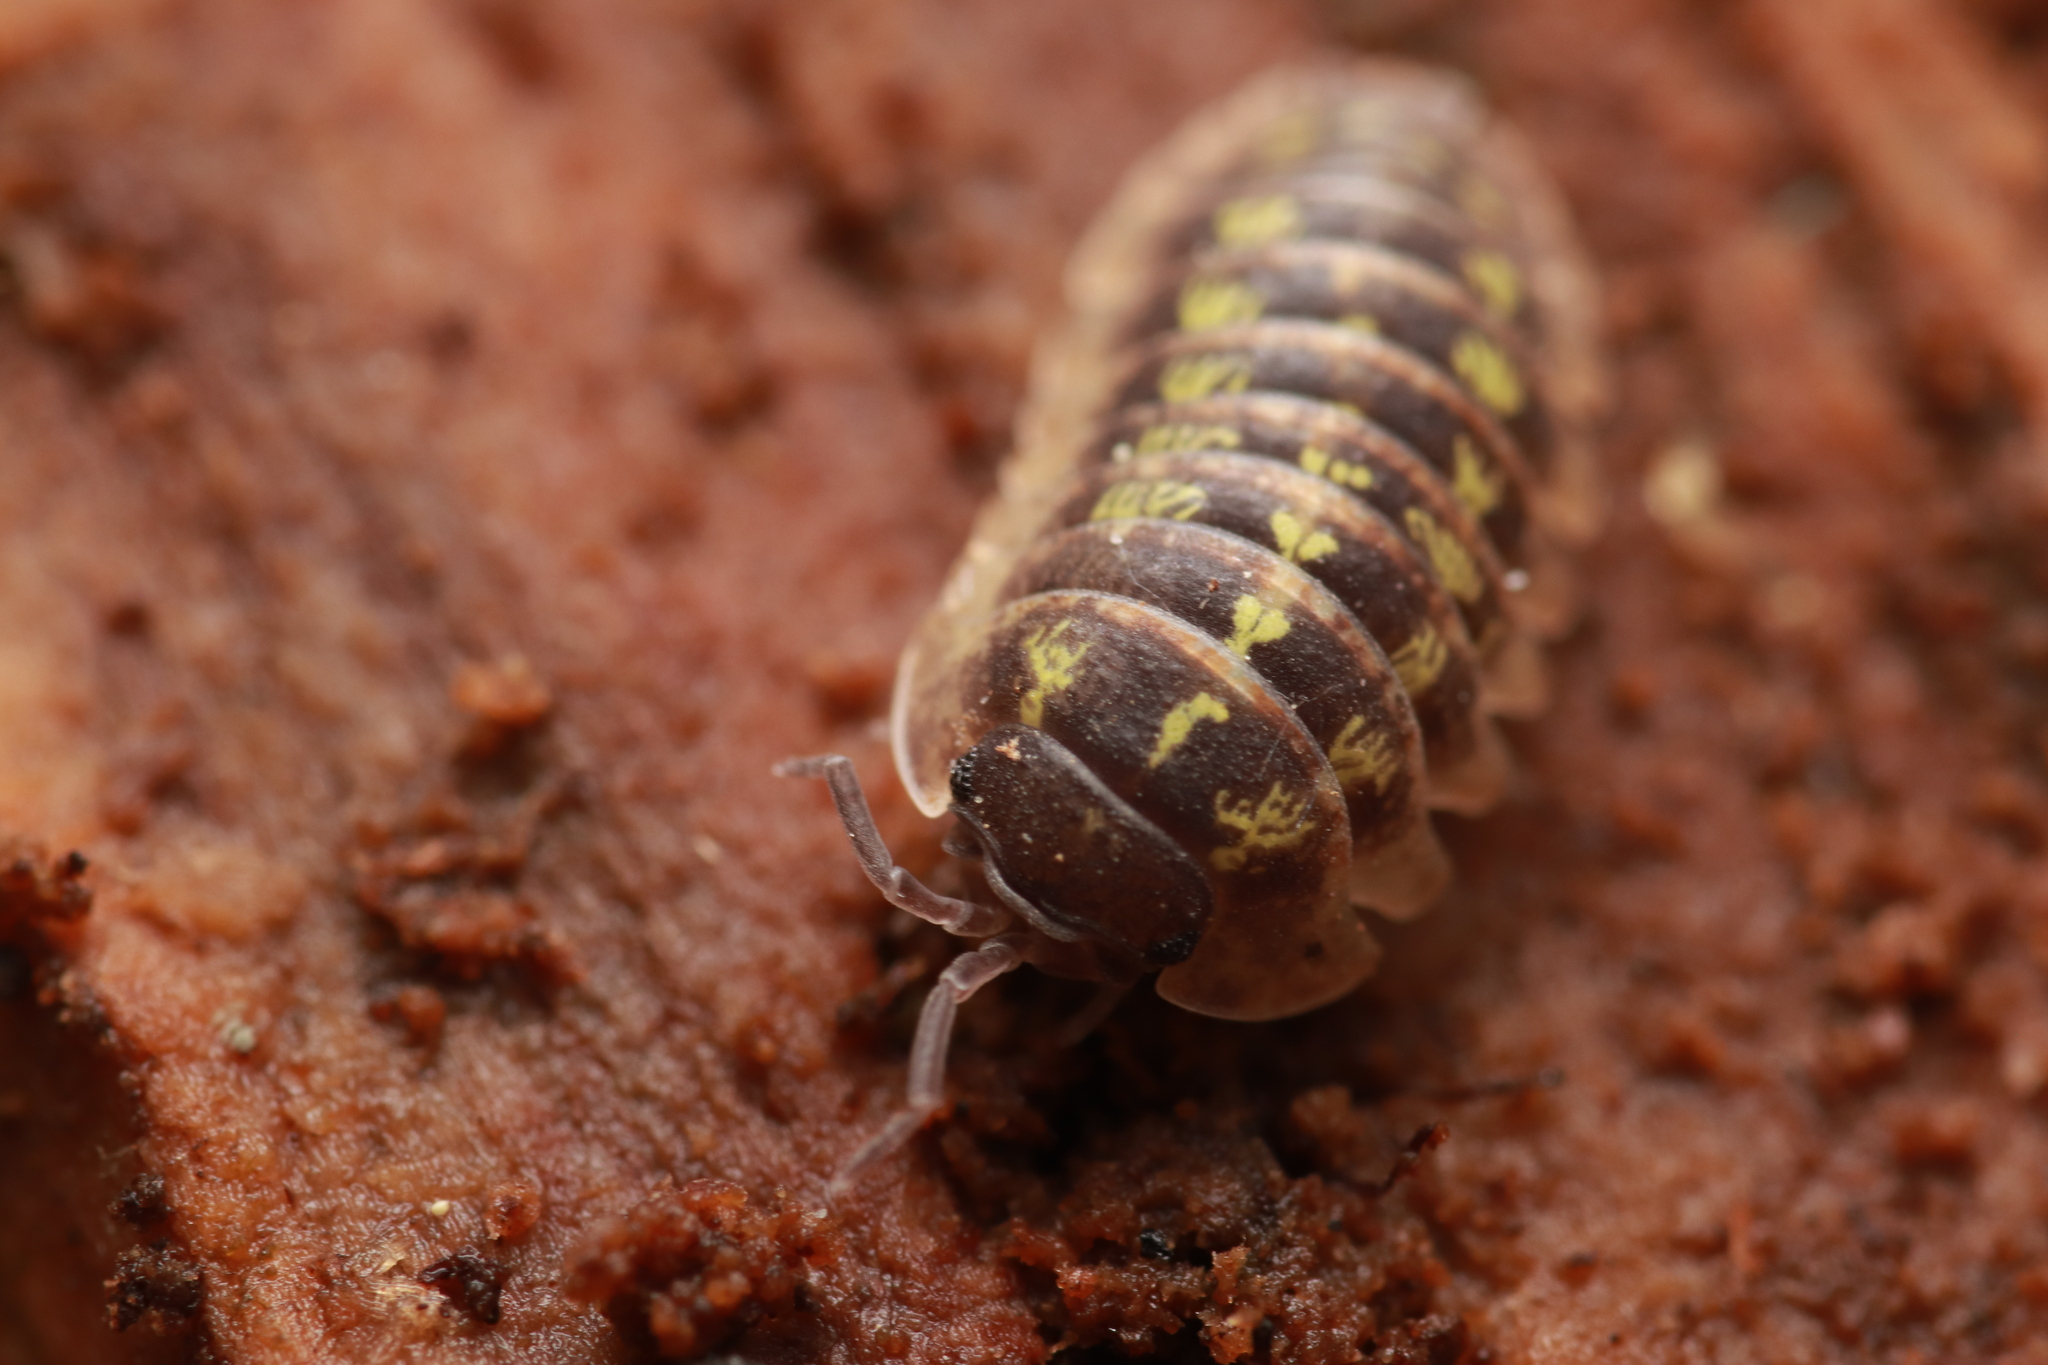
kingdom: Animalia
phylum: Arthropoda
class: Malacostraca
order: Isopoda
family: Armadillidiidae
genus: Armadillidium
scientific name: Armadillidium depressum
